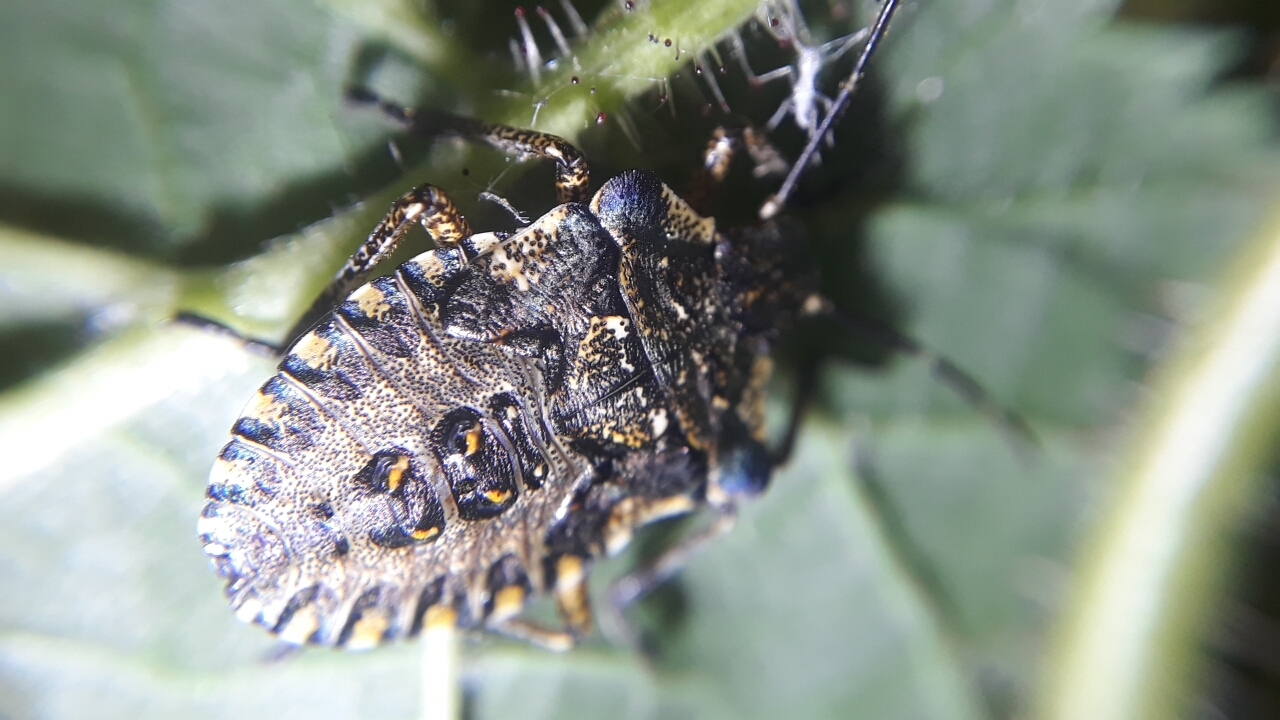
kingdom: Animalia
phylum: Arthropoda
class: Insecta
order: Hemiptera
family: Pentatomidae
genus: Pentatoma
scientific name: Pentatoma rufipes
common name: Forest bug
